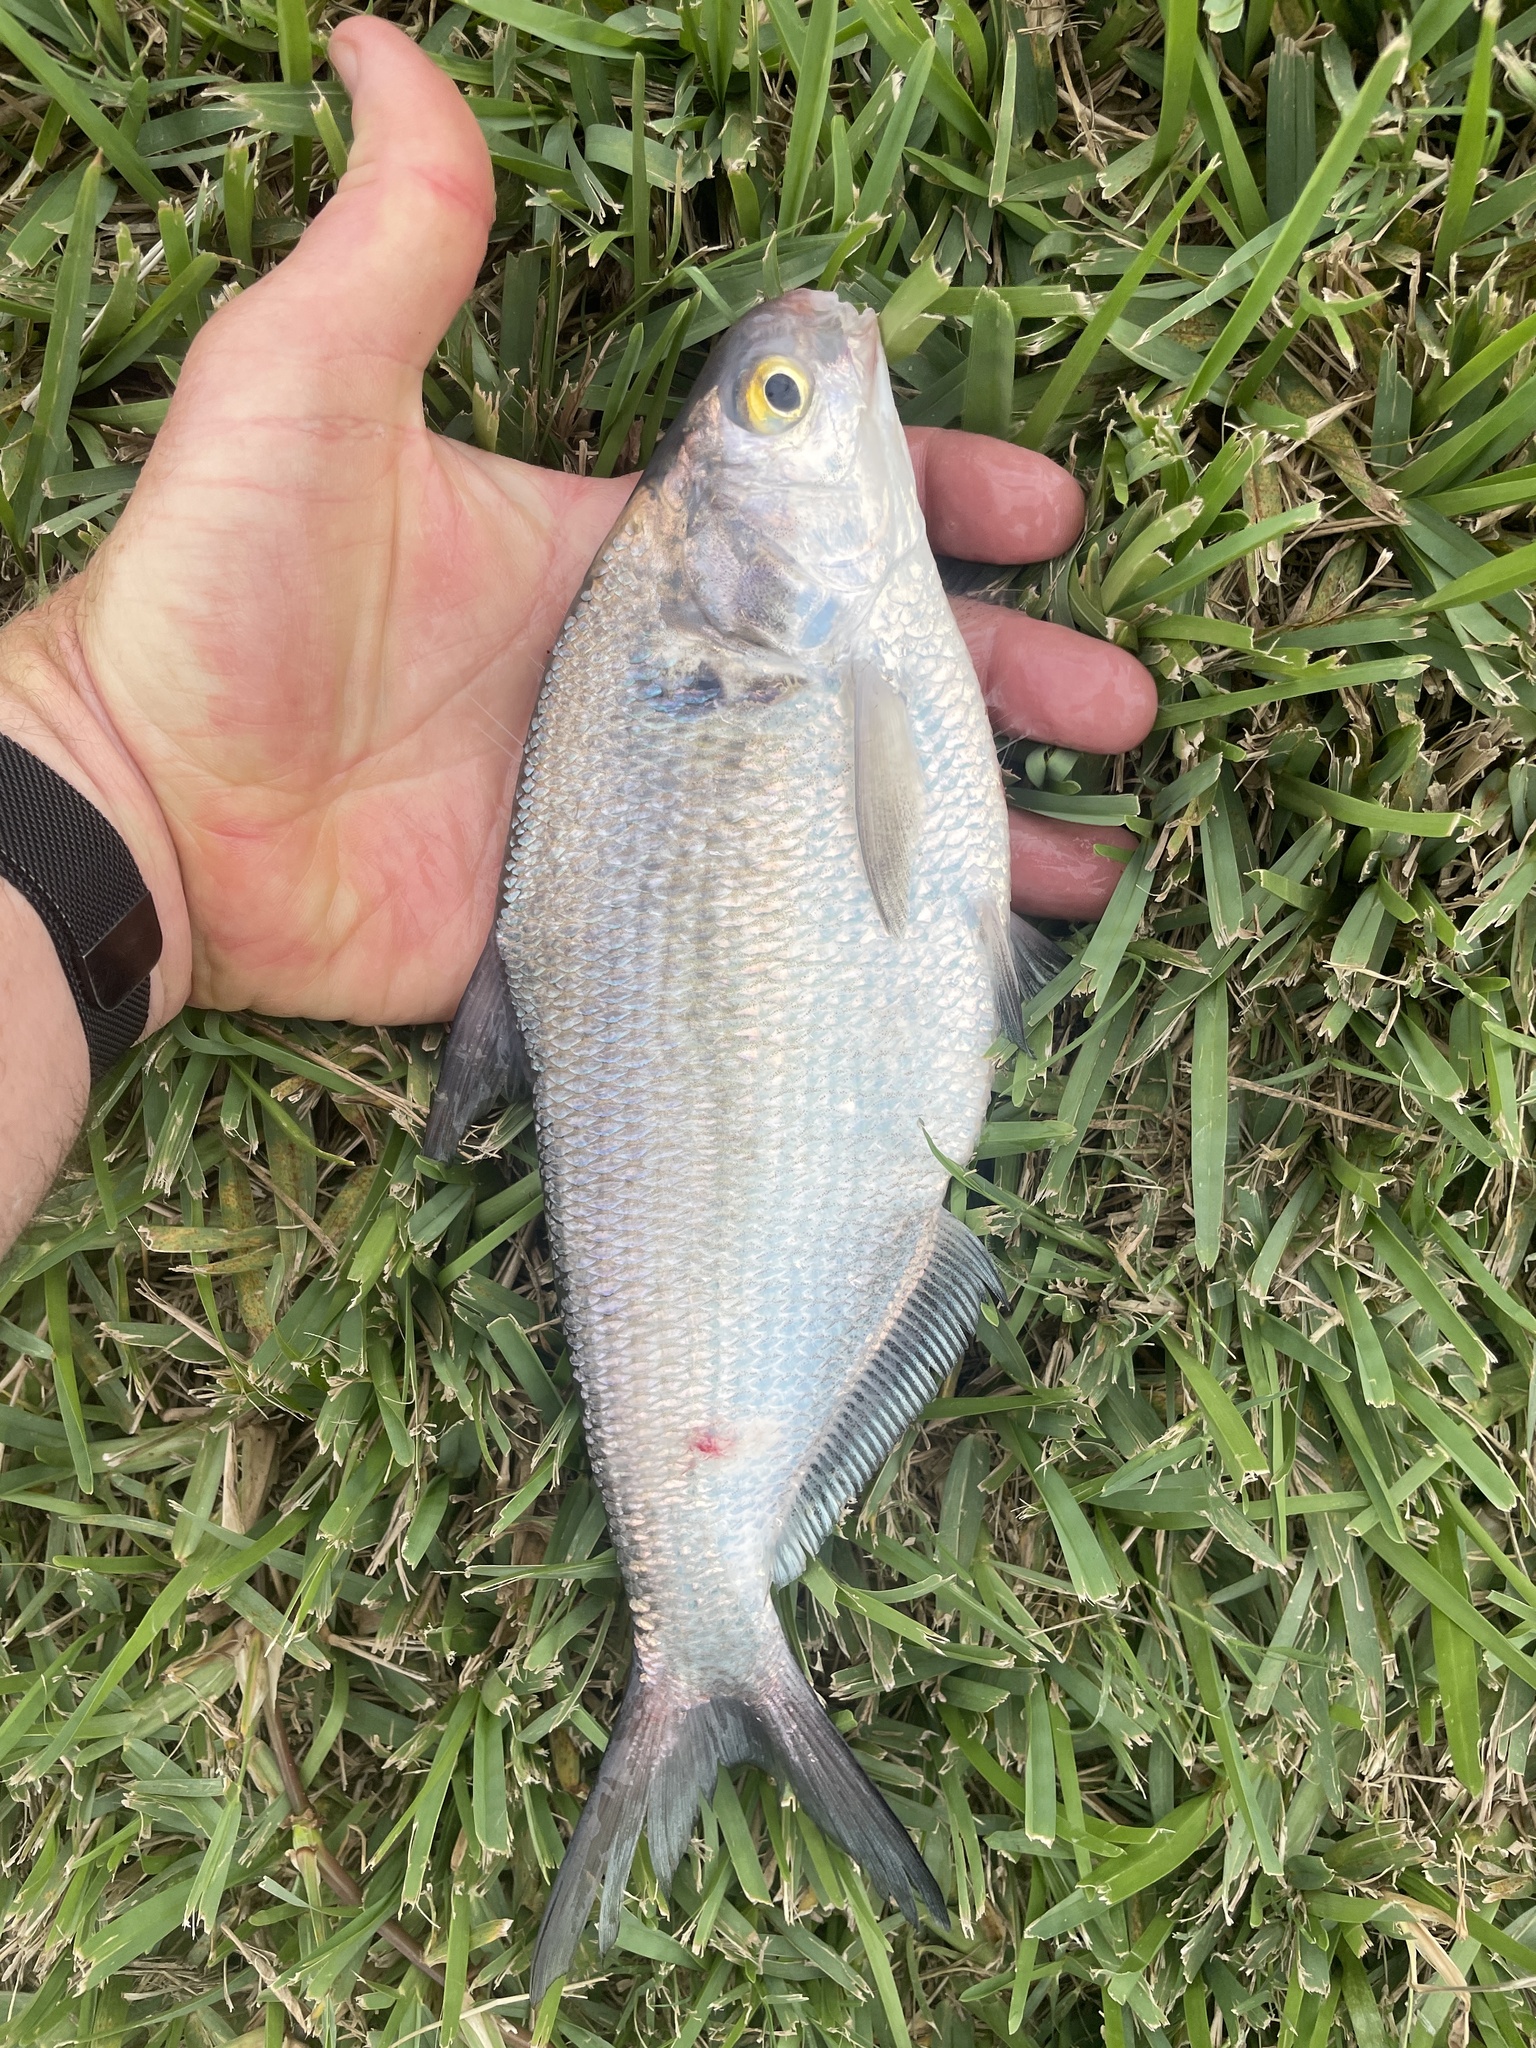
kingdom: Animalia
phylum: Chordata
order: Clupeiformes
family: Clupeidae
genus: Dorosoma
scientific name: Dorosoma cepedianum
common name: Gizzard shad
